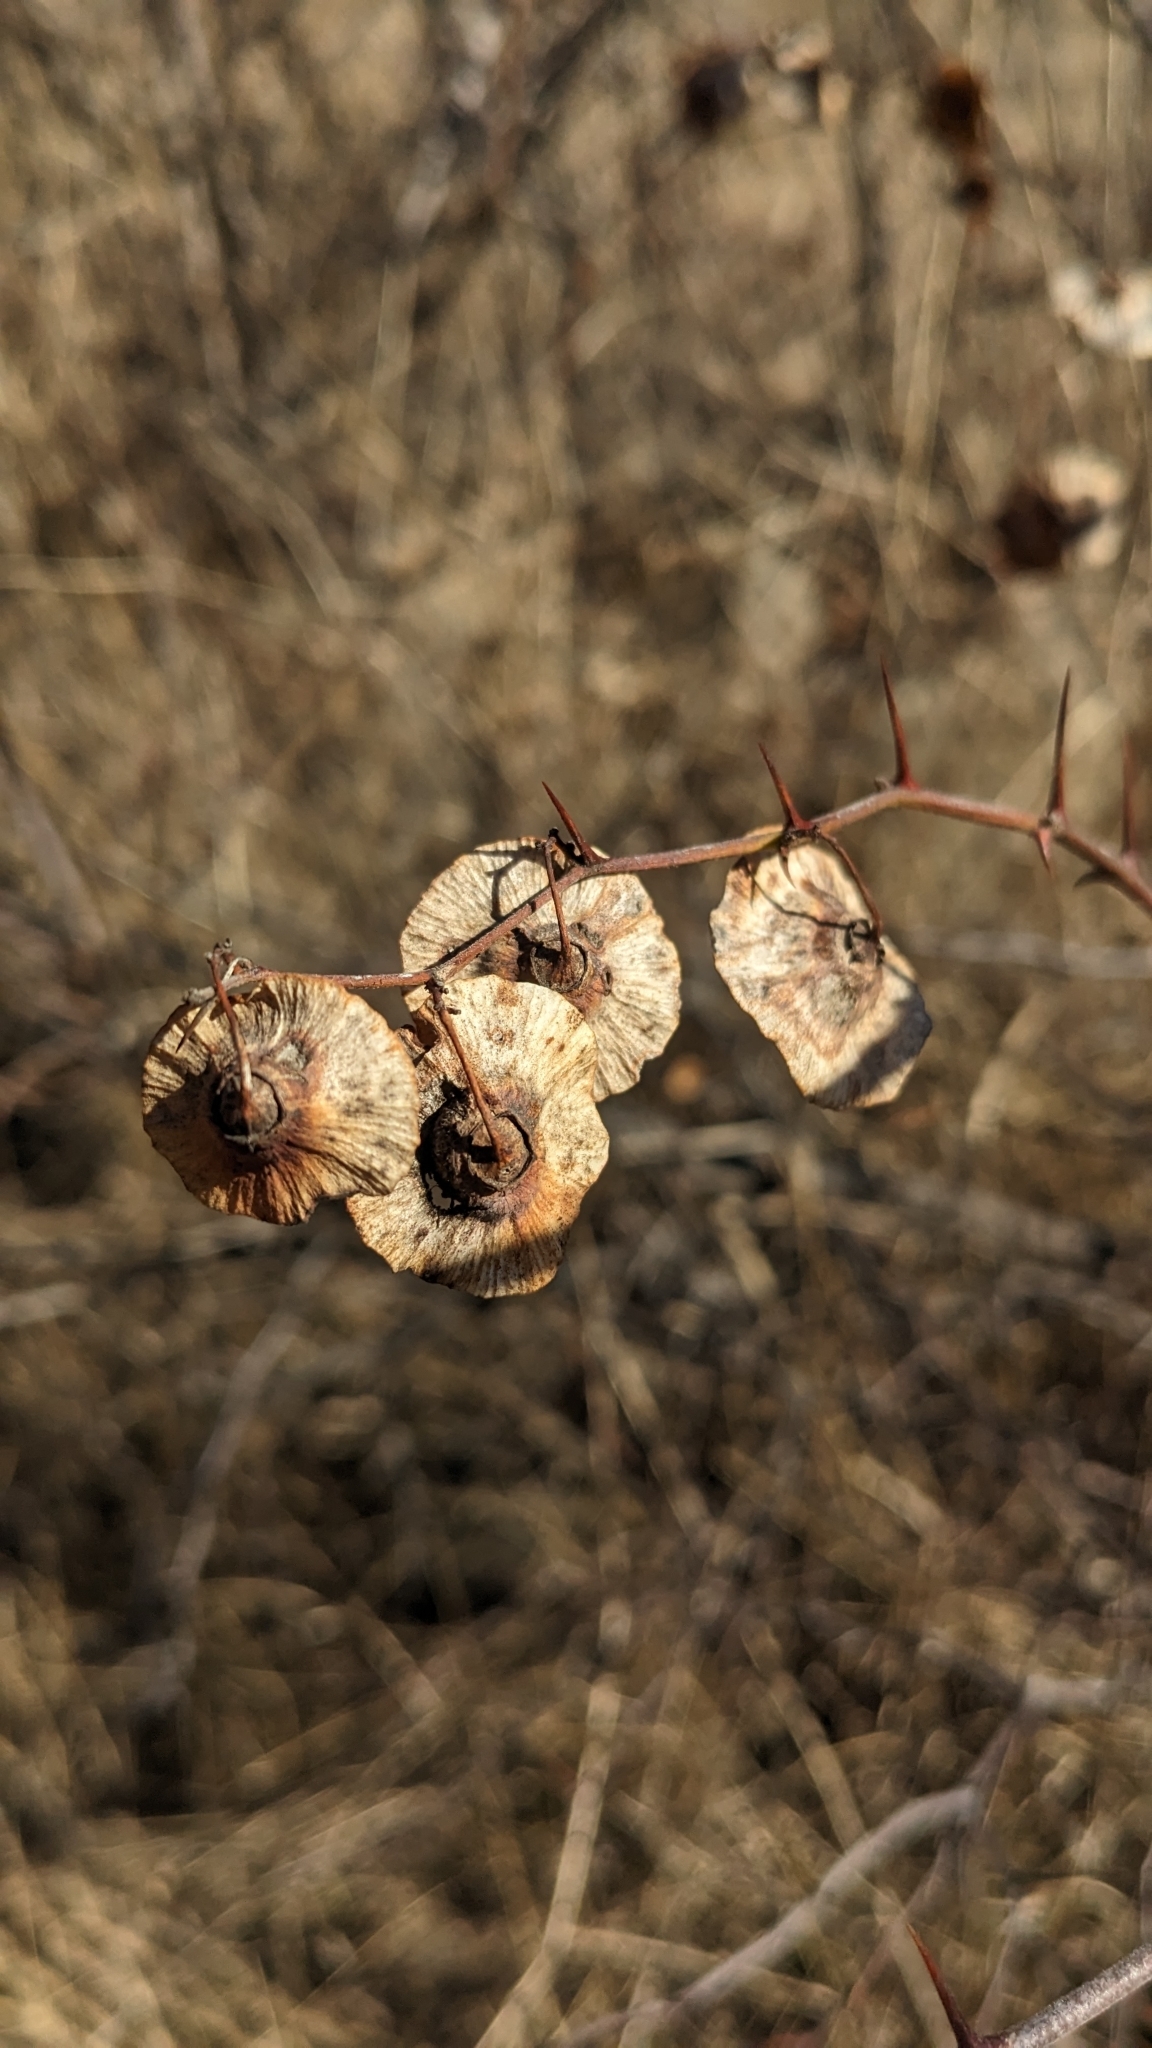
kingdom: Plantae
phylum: Tracheophyta
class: Magnoliopsida
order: Rosales
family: Rhamnaceae
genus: Paliurus
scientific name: Paliurus spina-christi
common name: Jeruselem thorn
